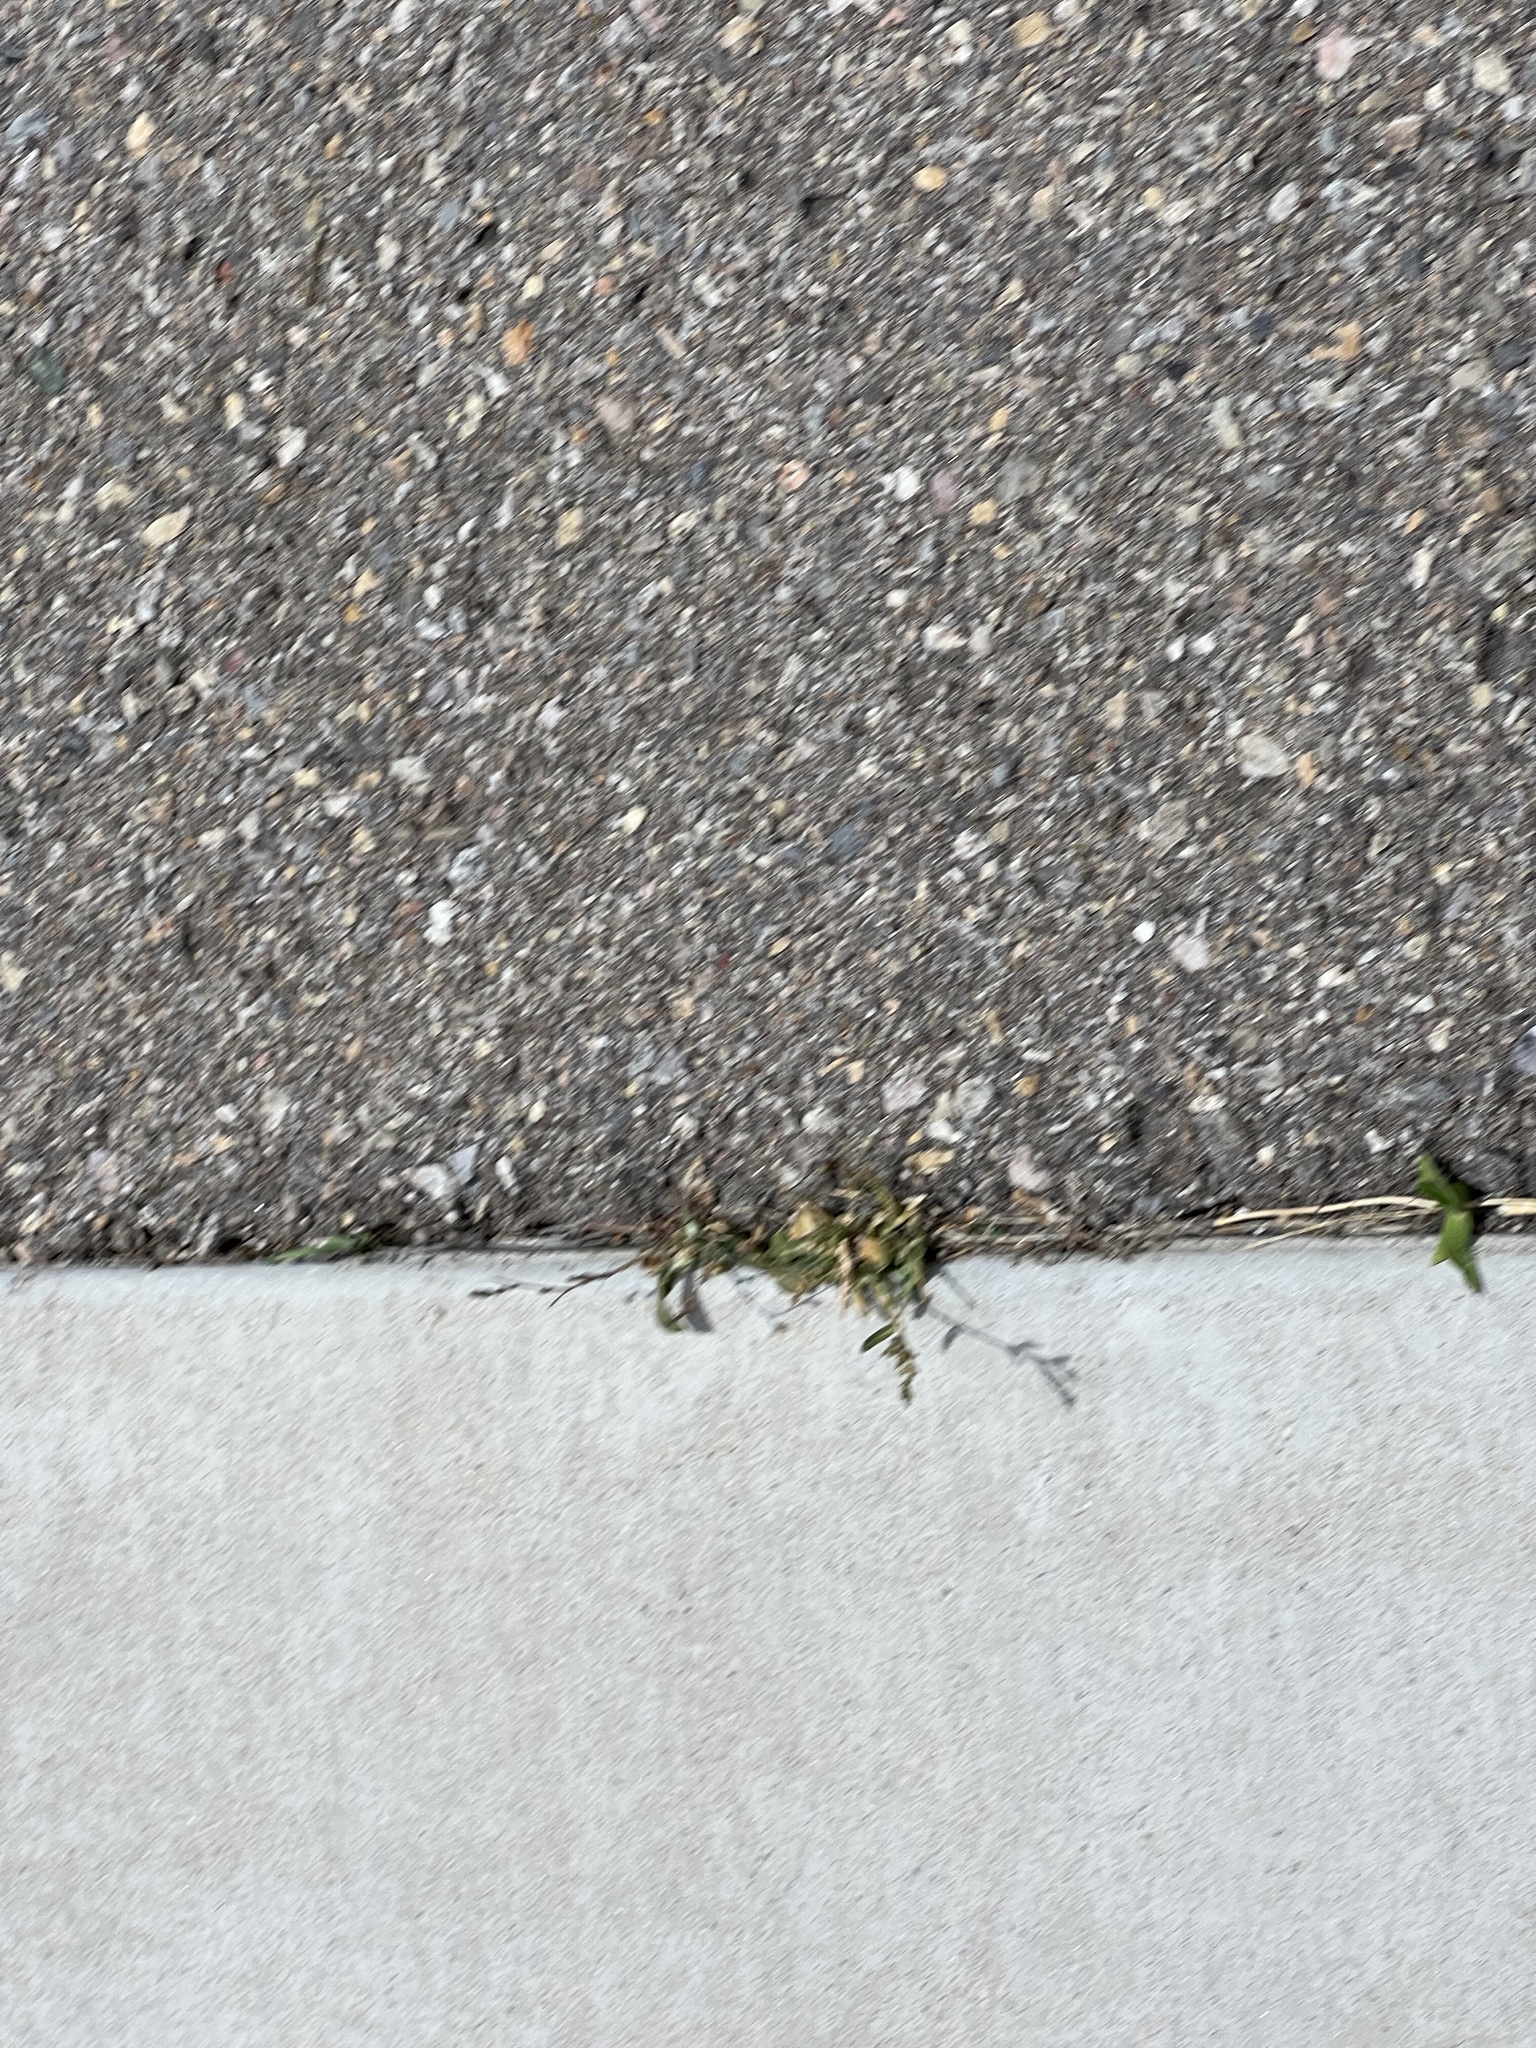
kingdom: Plantae
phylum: Tracheophyta
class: Magnoliopsida
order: Asterales
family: Asteraceae
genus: Erigeron
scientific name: Erigeron canadensis
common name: Canadian fleabane
